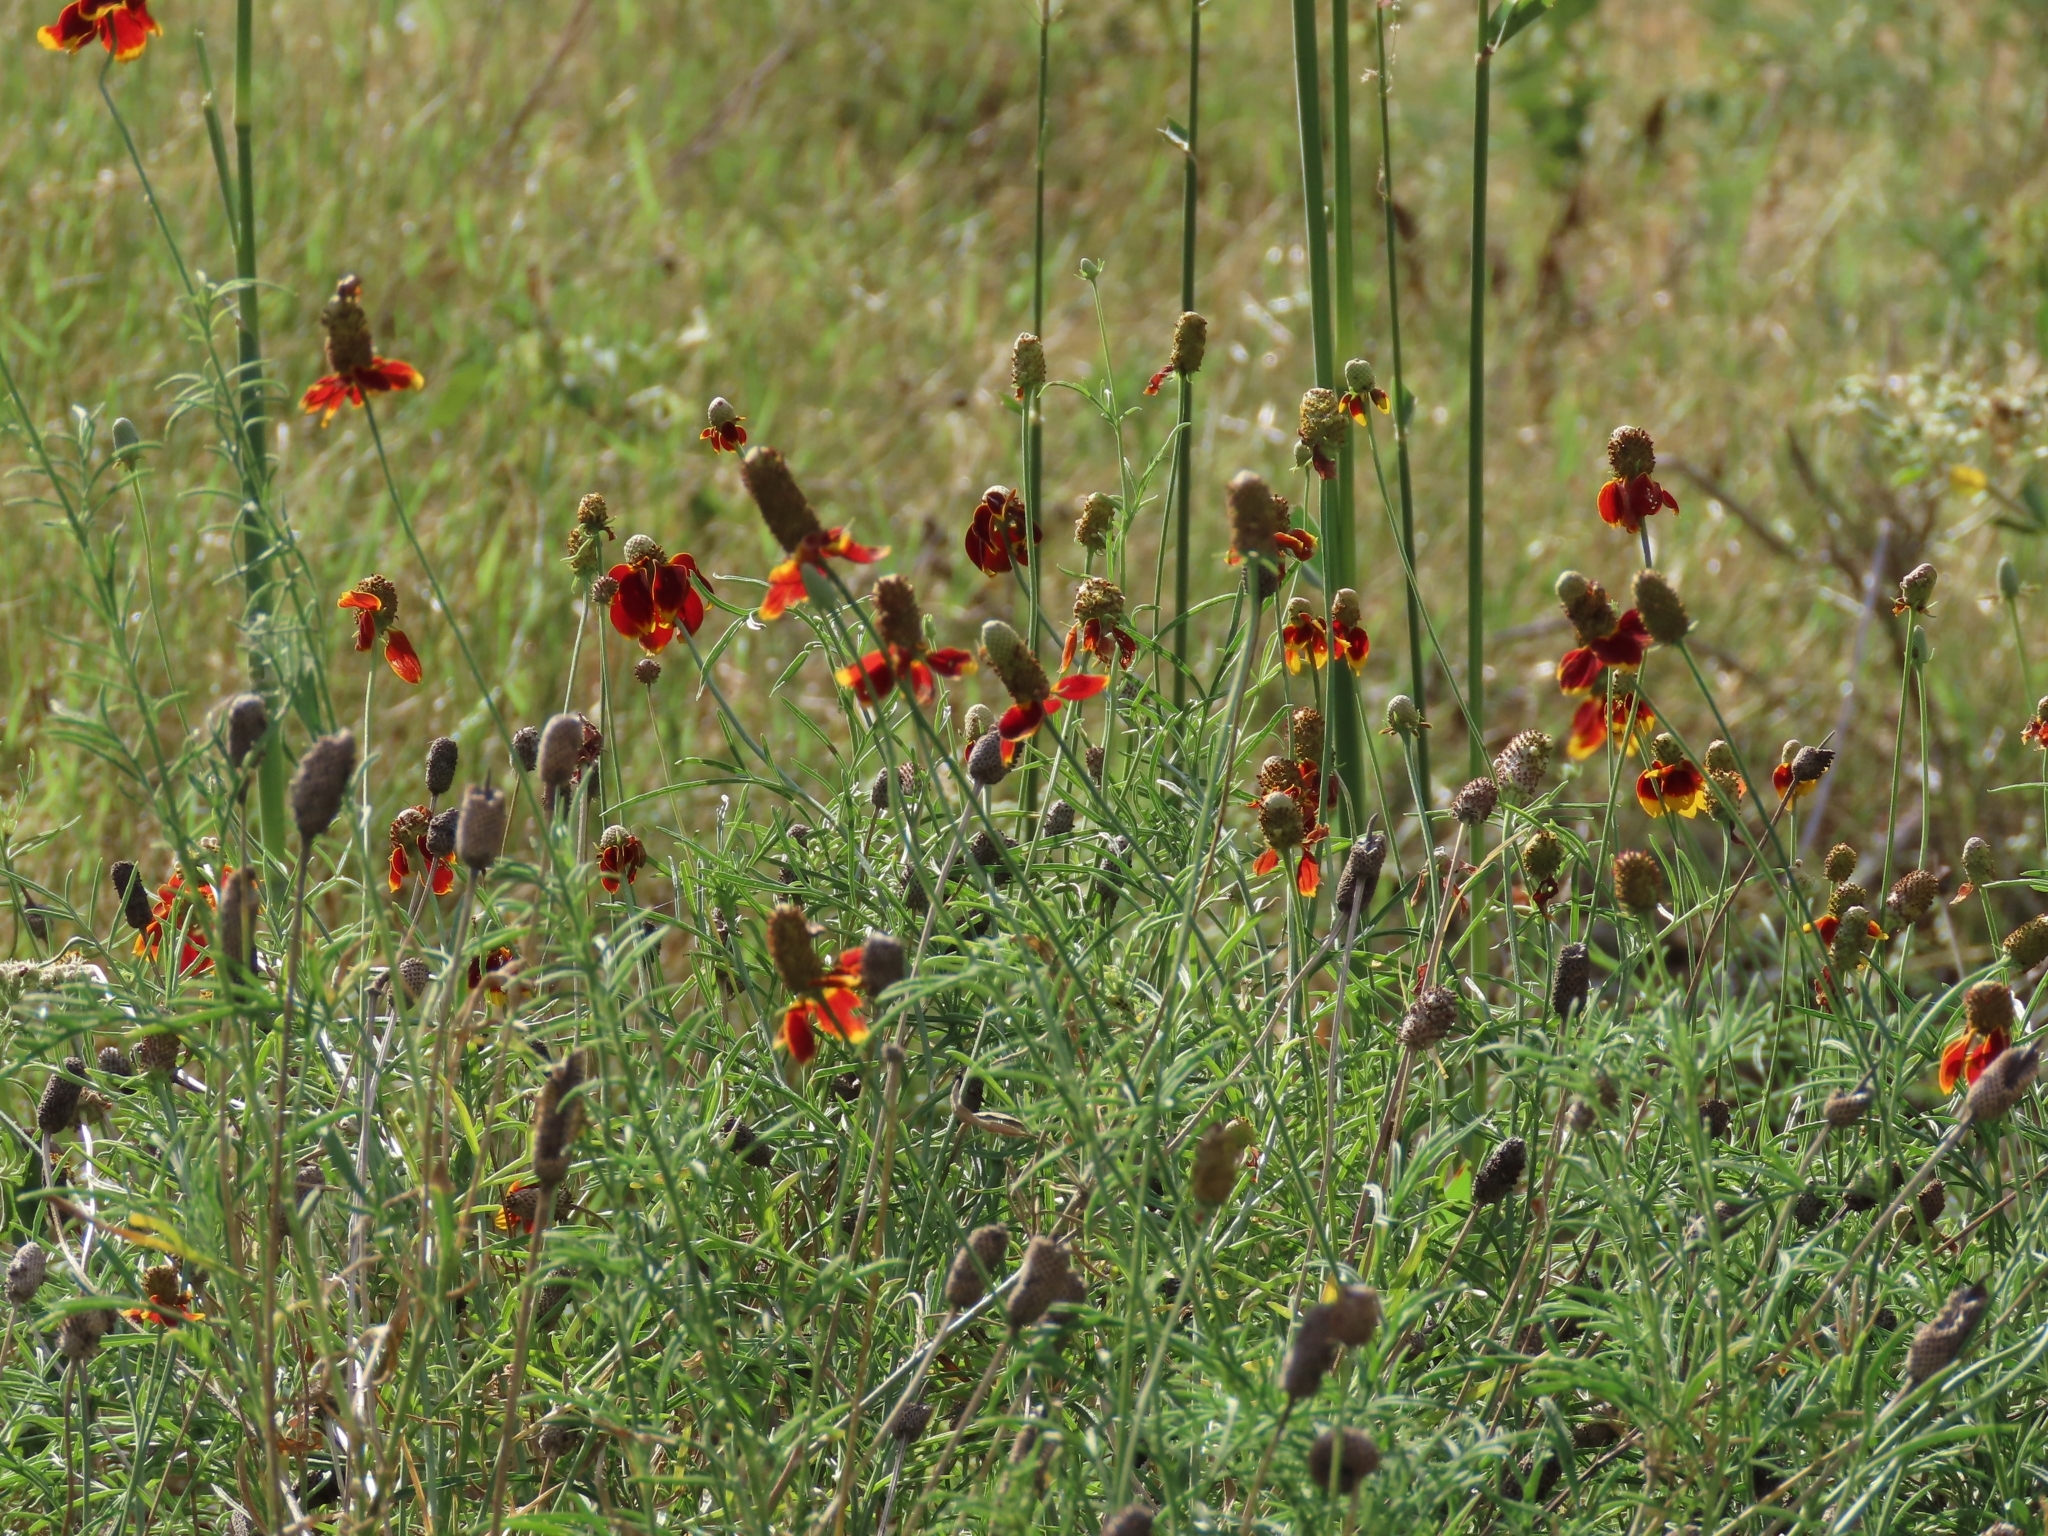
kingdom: Plantae
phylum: Tracheophyta
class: Magnoliopsida
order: Asterales
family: Asteraceae
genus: Ratibida
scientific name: Ratibida columnifera
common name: Prairie coneflower
